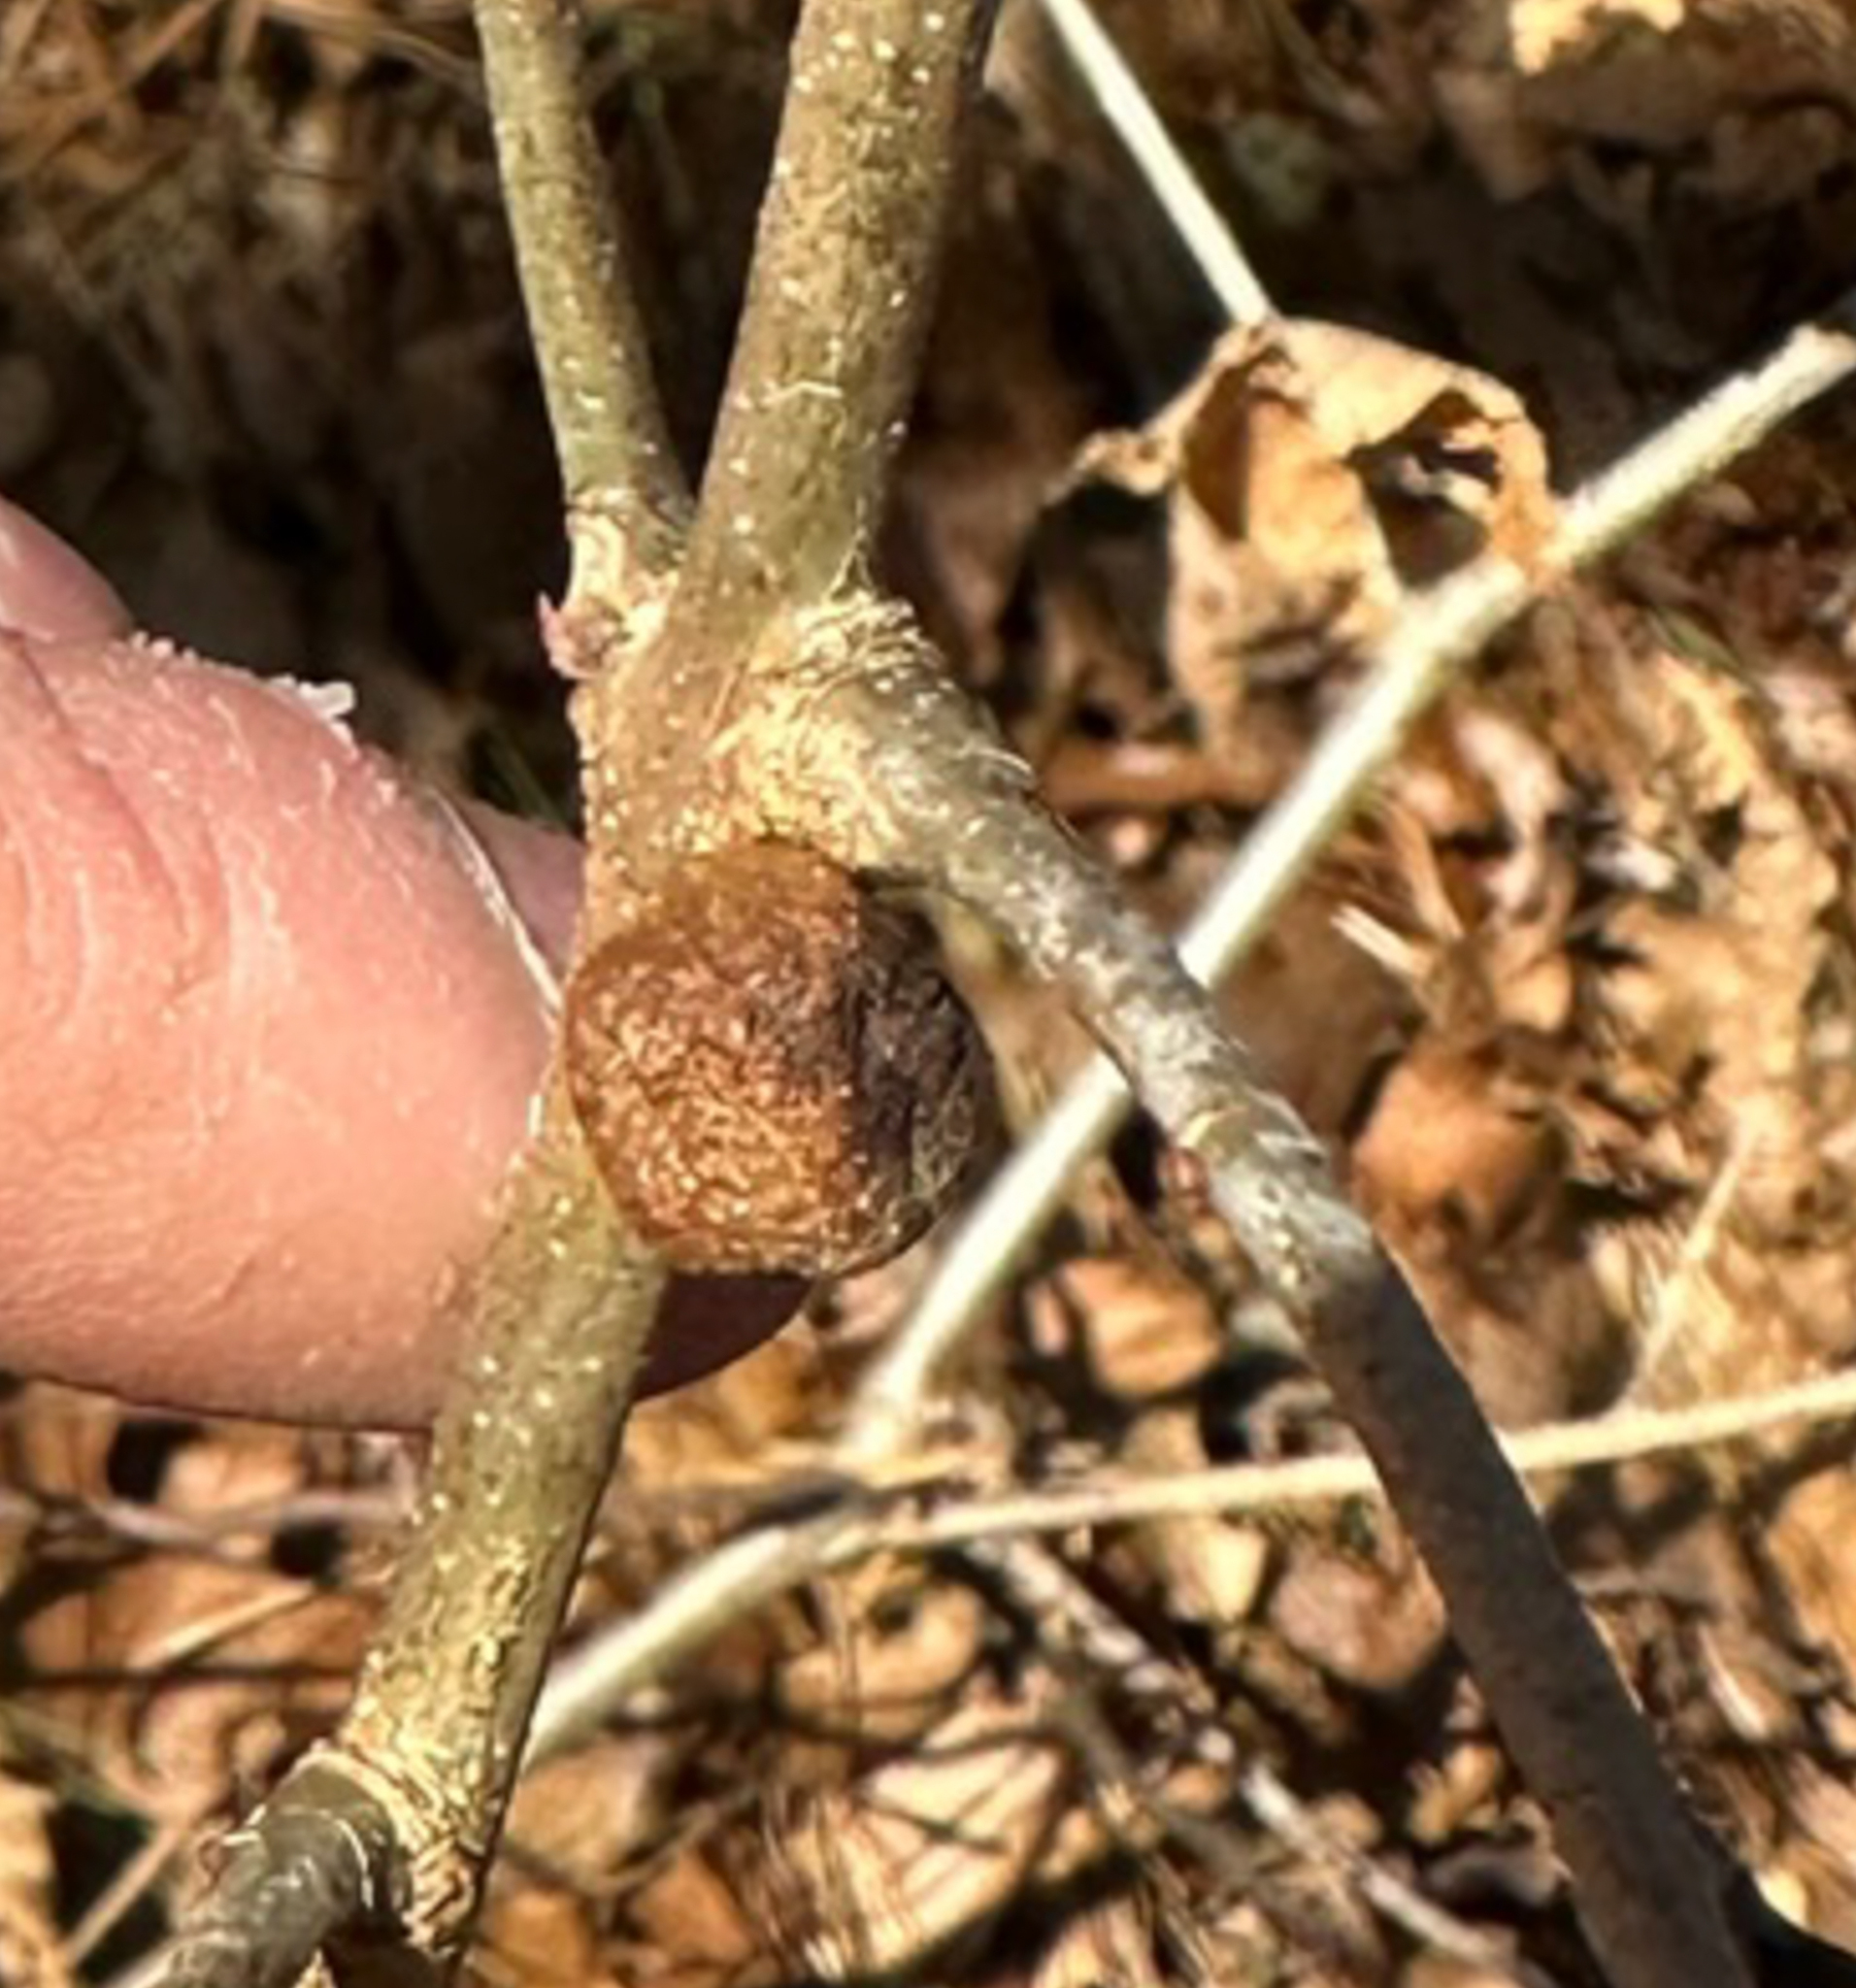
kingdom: Animalia
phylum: Arthropoda
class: Insecta
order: Hymenoptera
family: Cynipidae
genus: Disholcaspis
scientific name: Disholcaspis quercusglobulus
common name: Round bullet gall wasp
